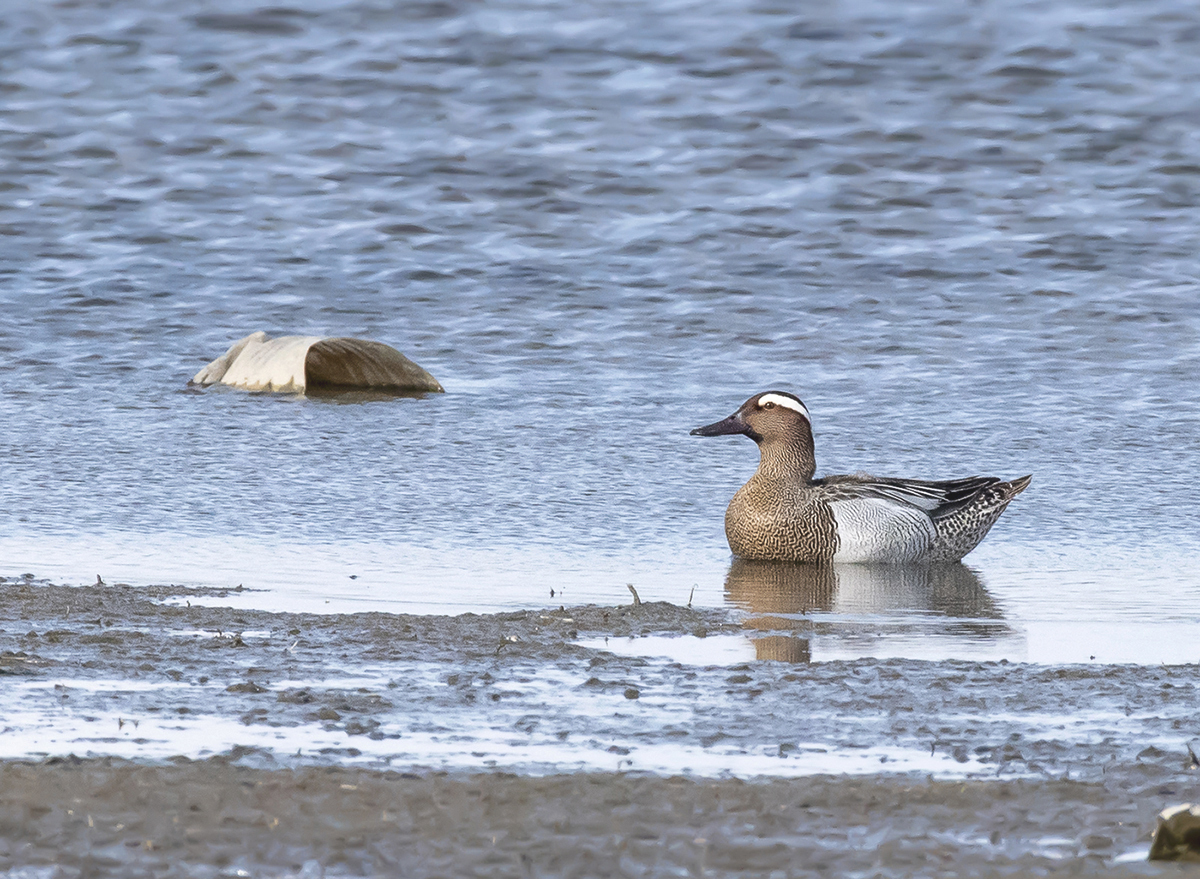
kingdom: Animalia
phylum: Chordata
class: Aves
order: Anseriformes
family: Anatidae
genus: Spatula
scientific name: Spatula querquedula
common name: Garganey
